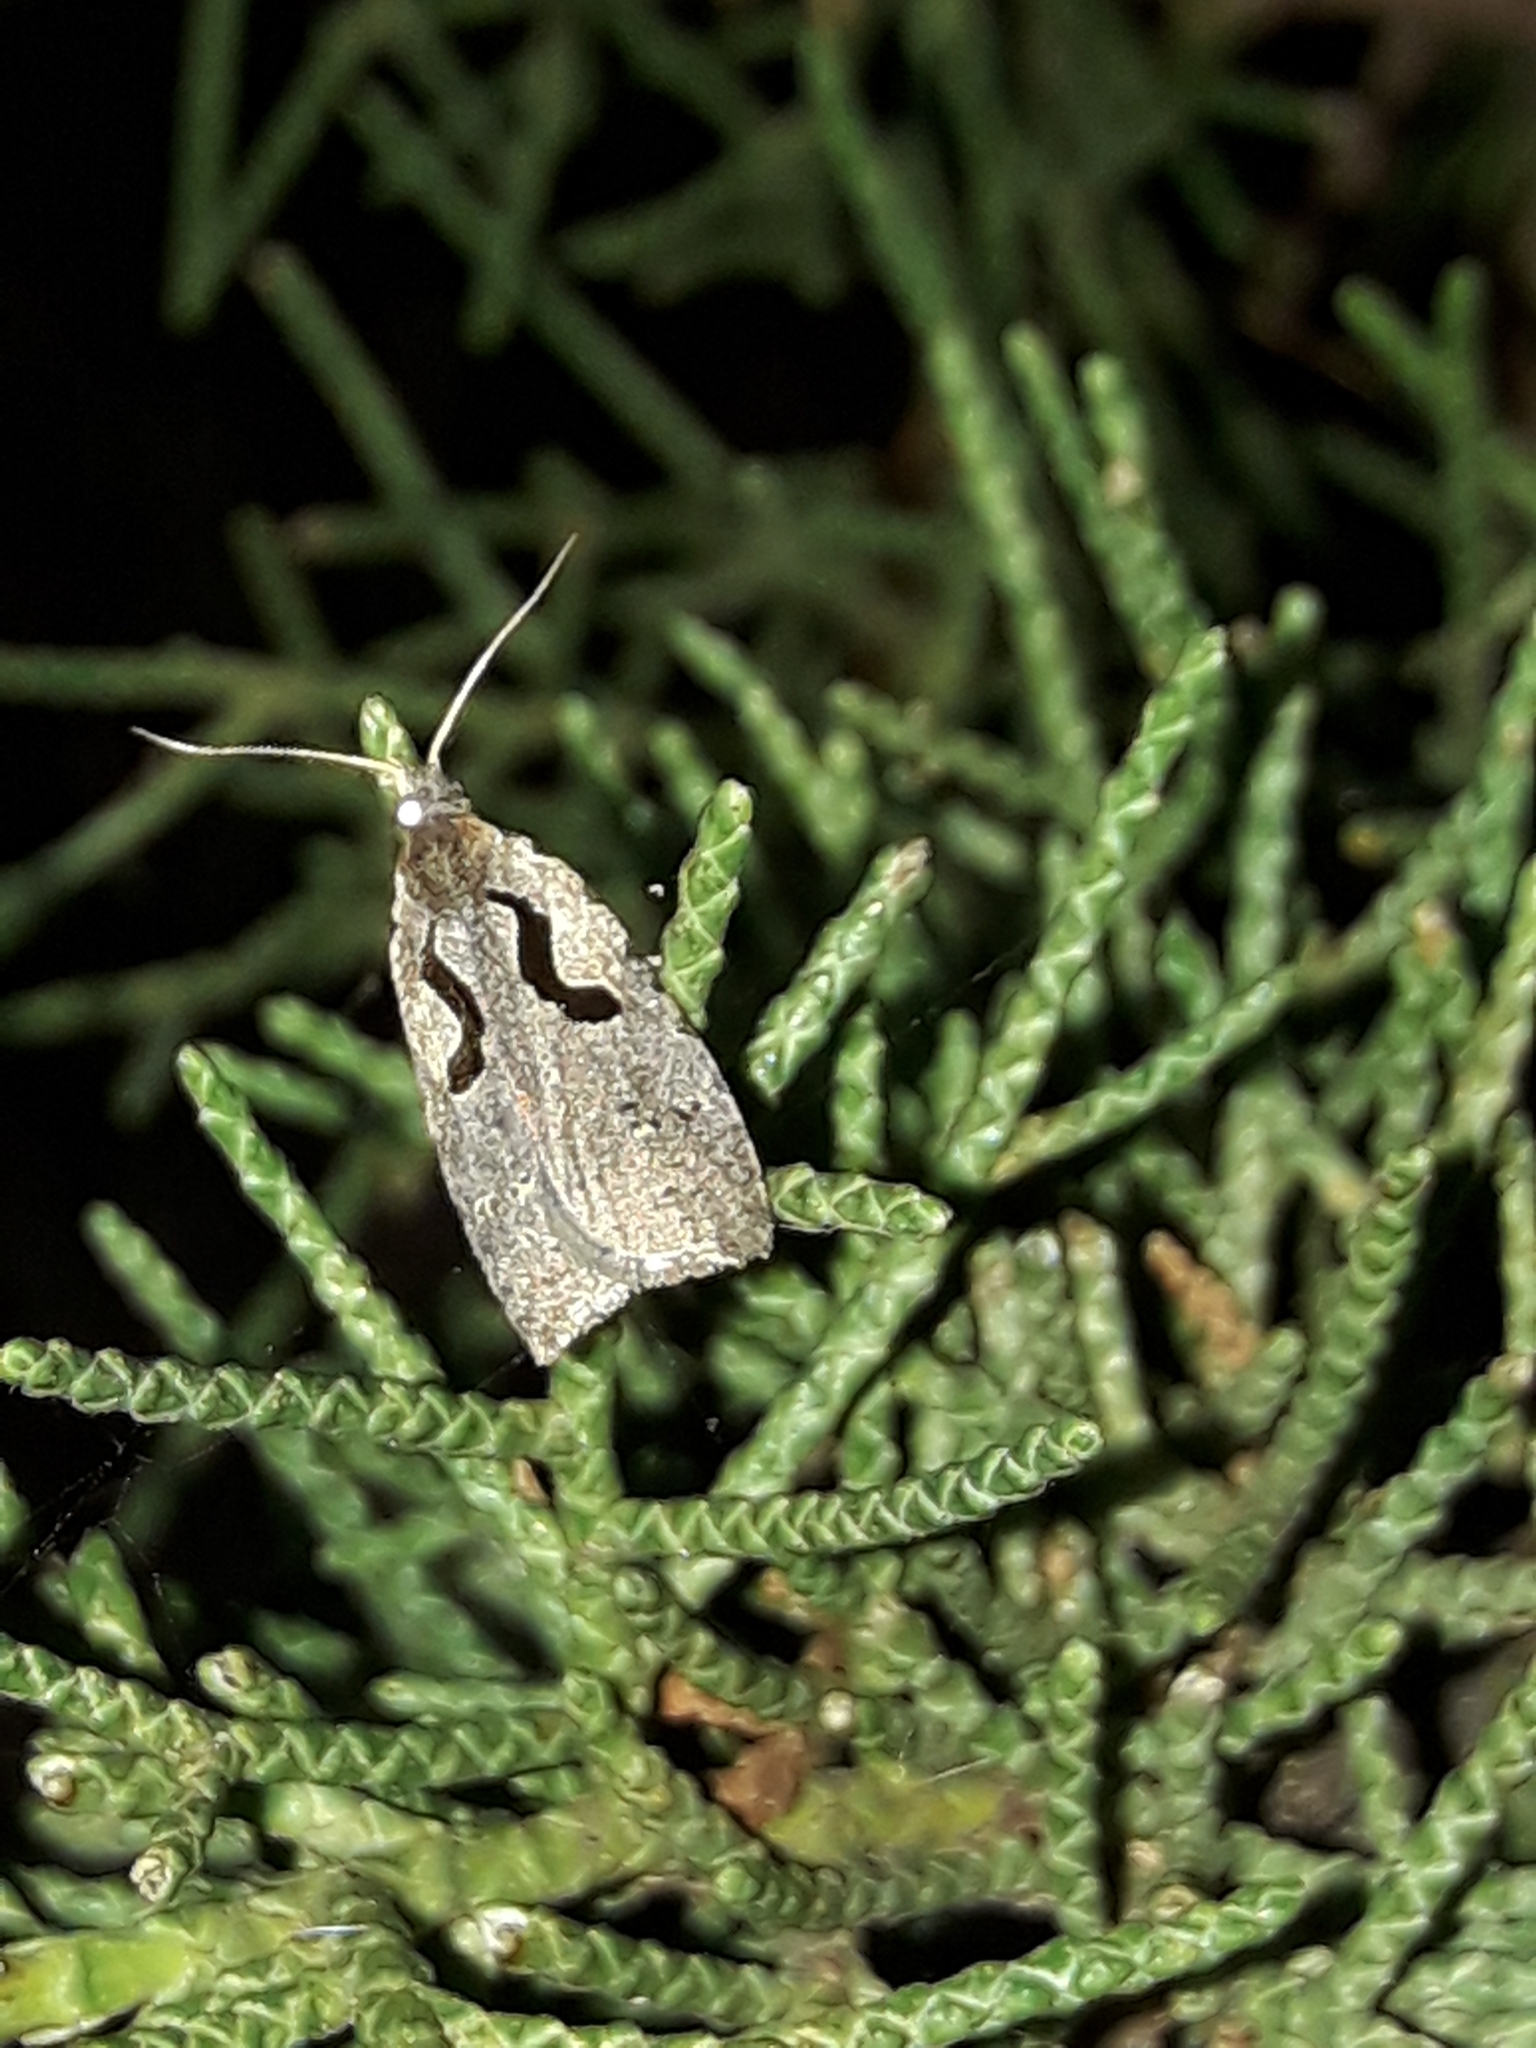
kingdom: Animalia
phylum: Arthropoda
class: Insecta
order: Lepidoptera
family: Tortricidae
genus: Cnephasia
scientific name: Cnephasia jactatana
